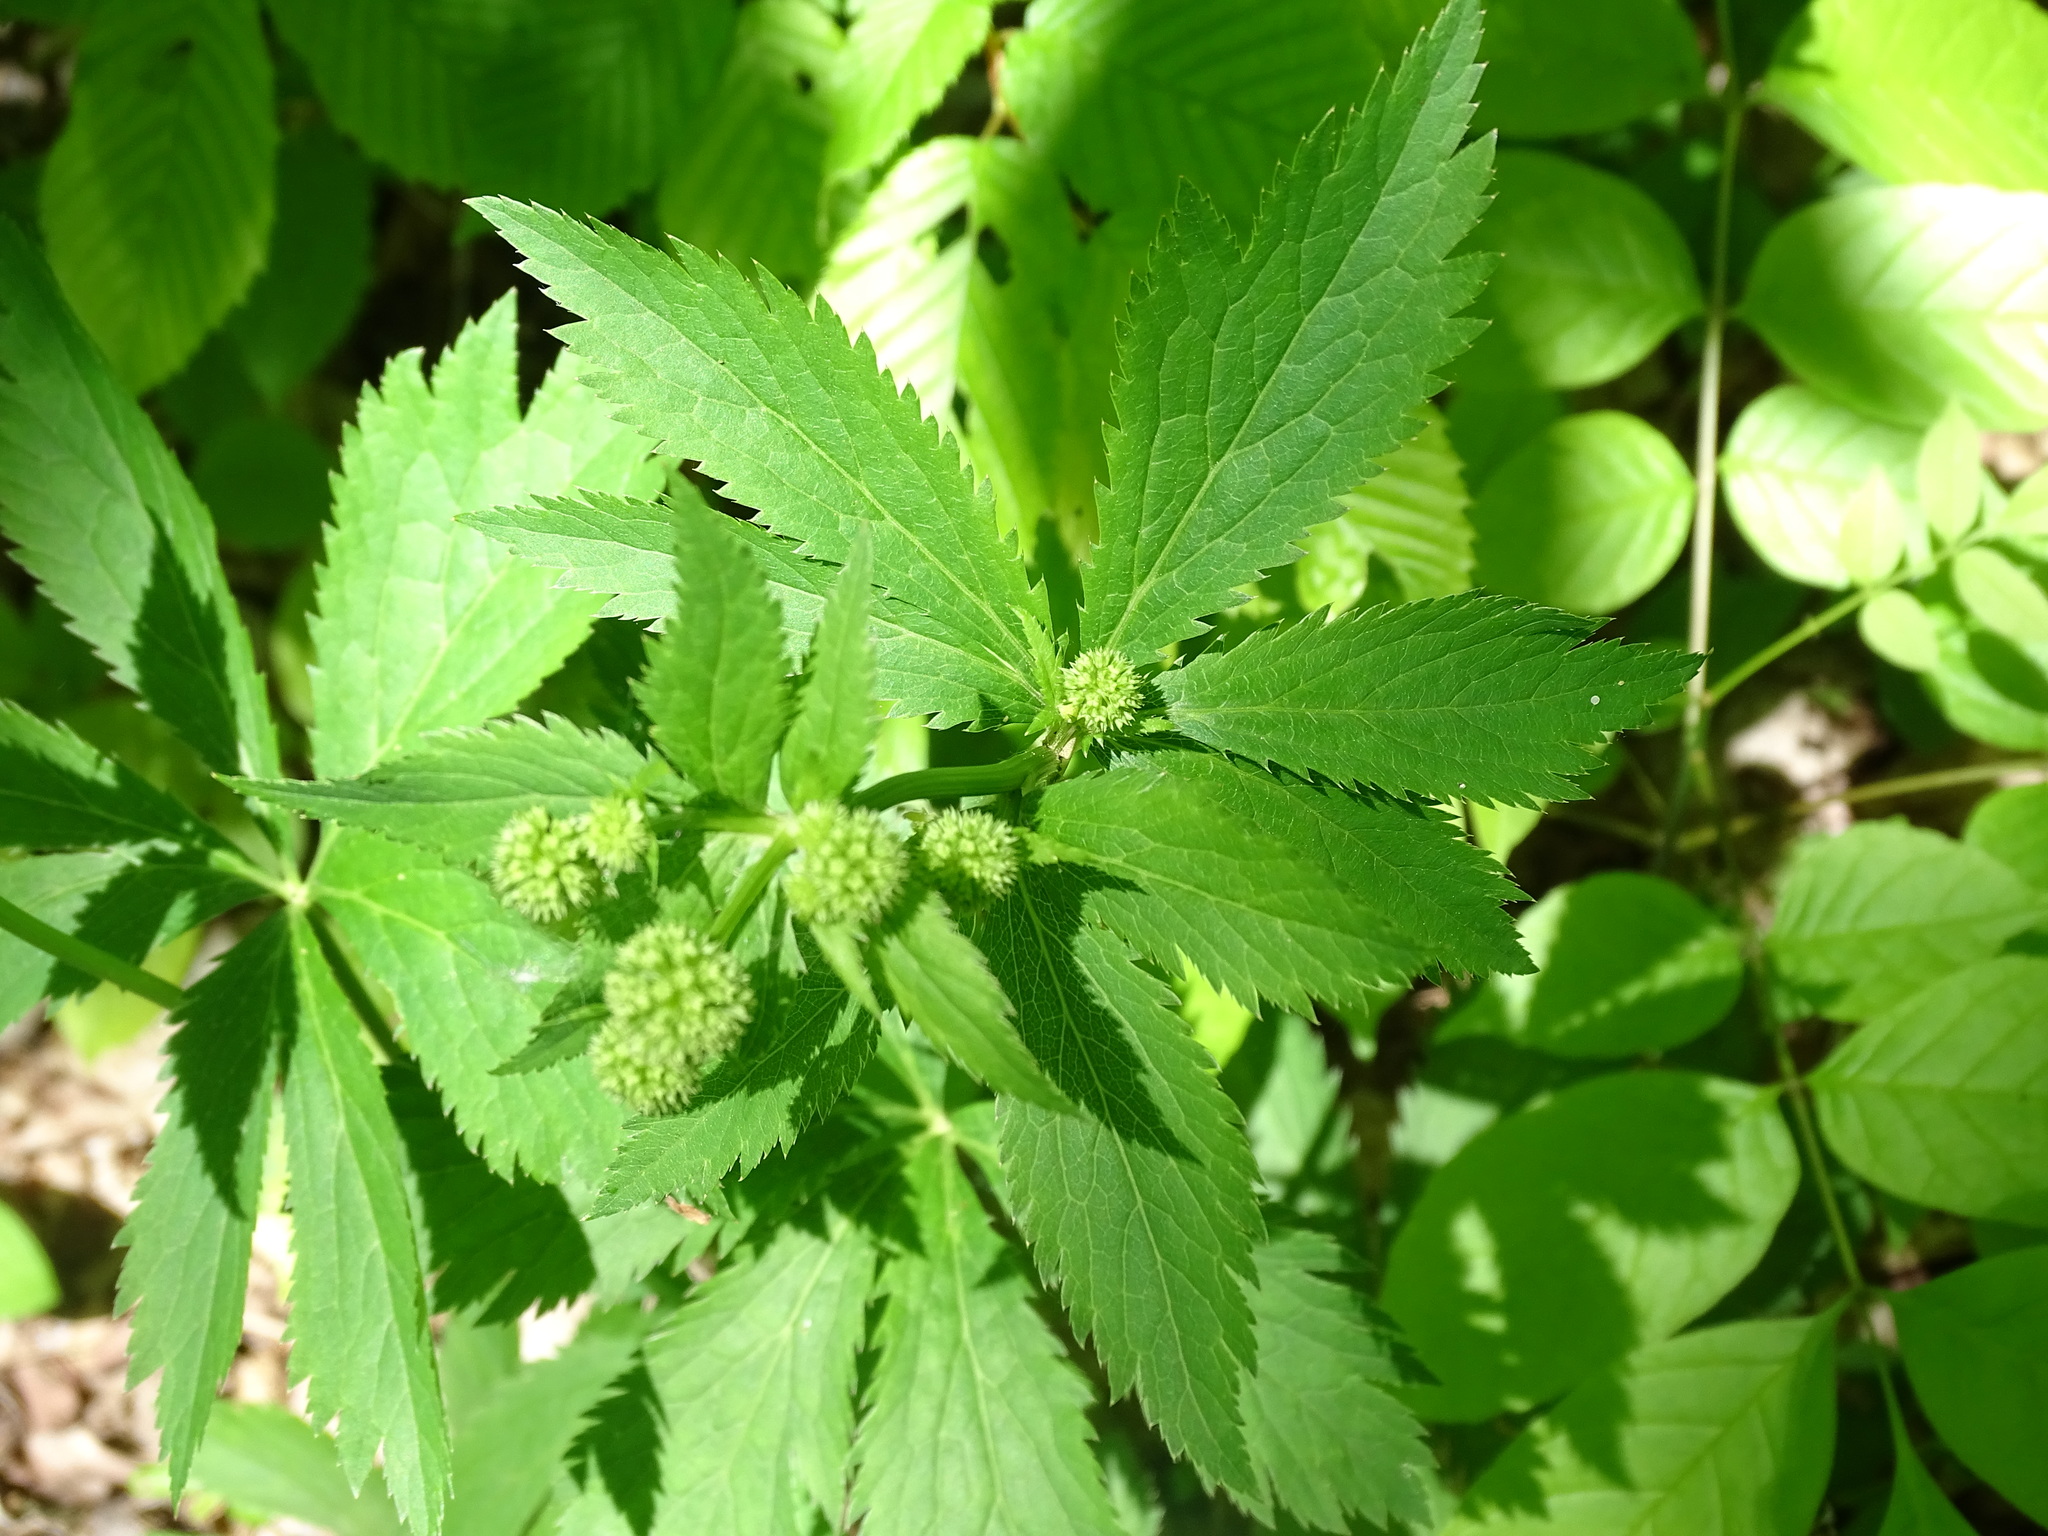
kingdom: Plantae
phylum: Tracheophyta
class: Magnoliopsida
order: Apiales
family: Apiaceae
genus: Sanicula
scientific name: Sanicula marilandica
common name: Black snakeroot
